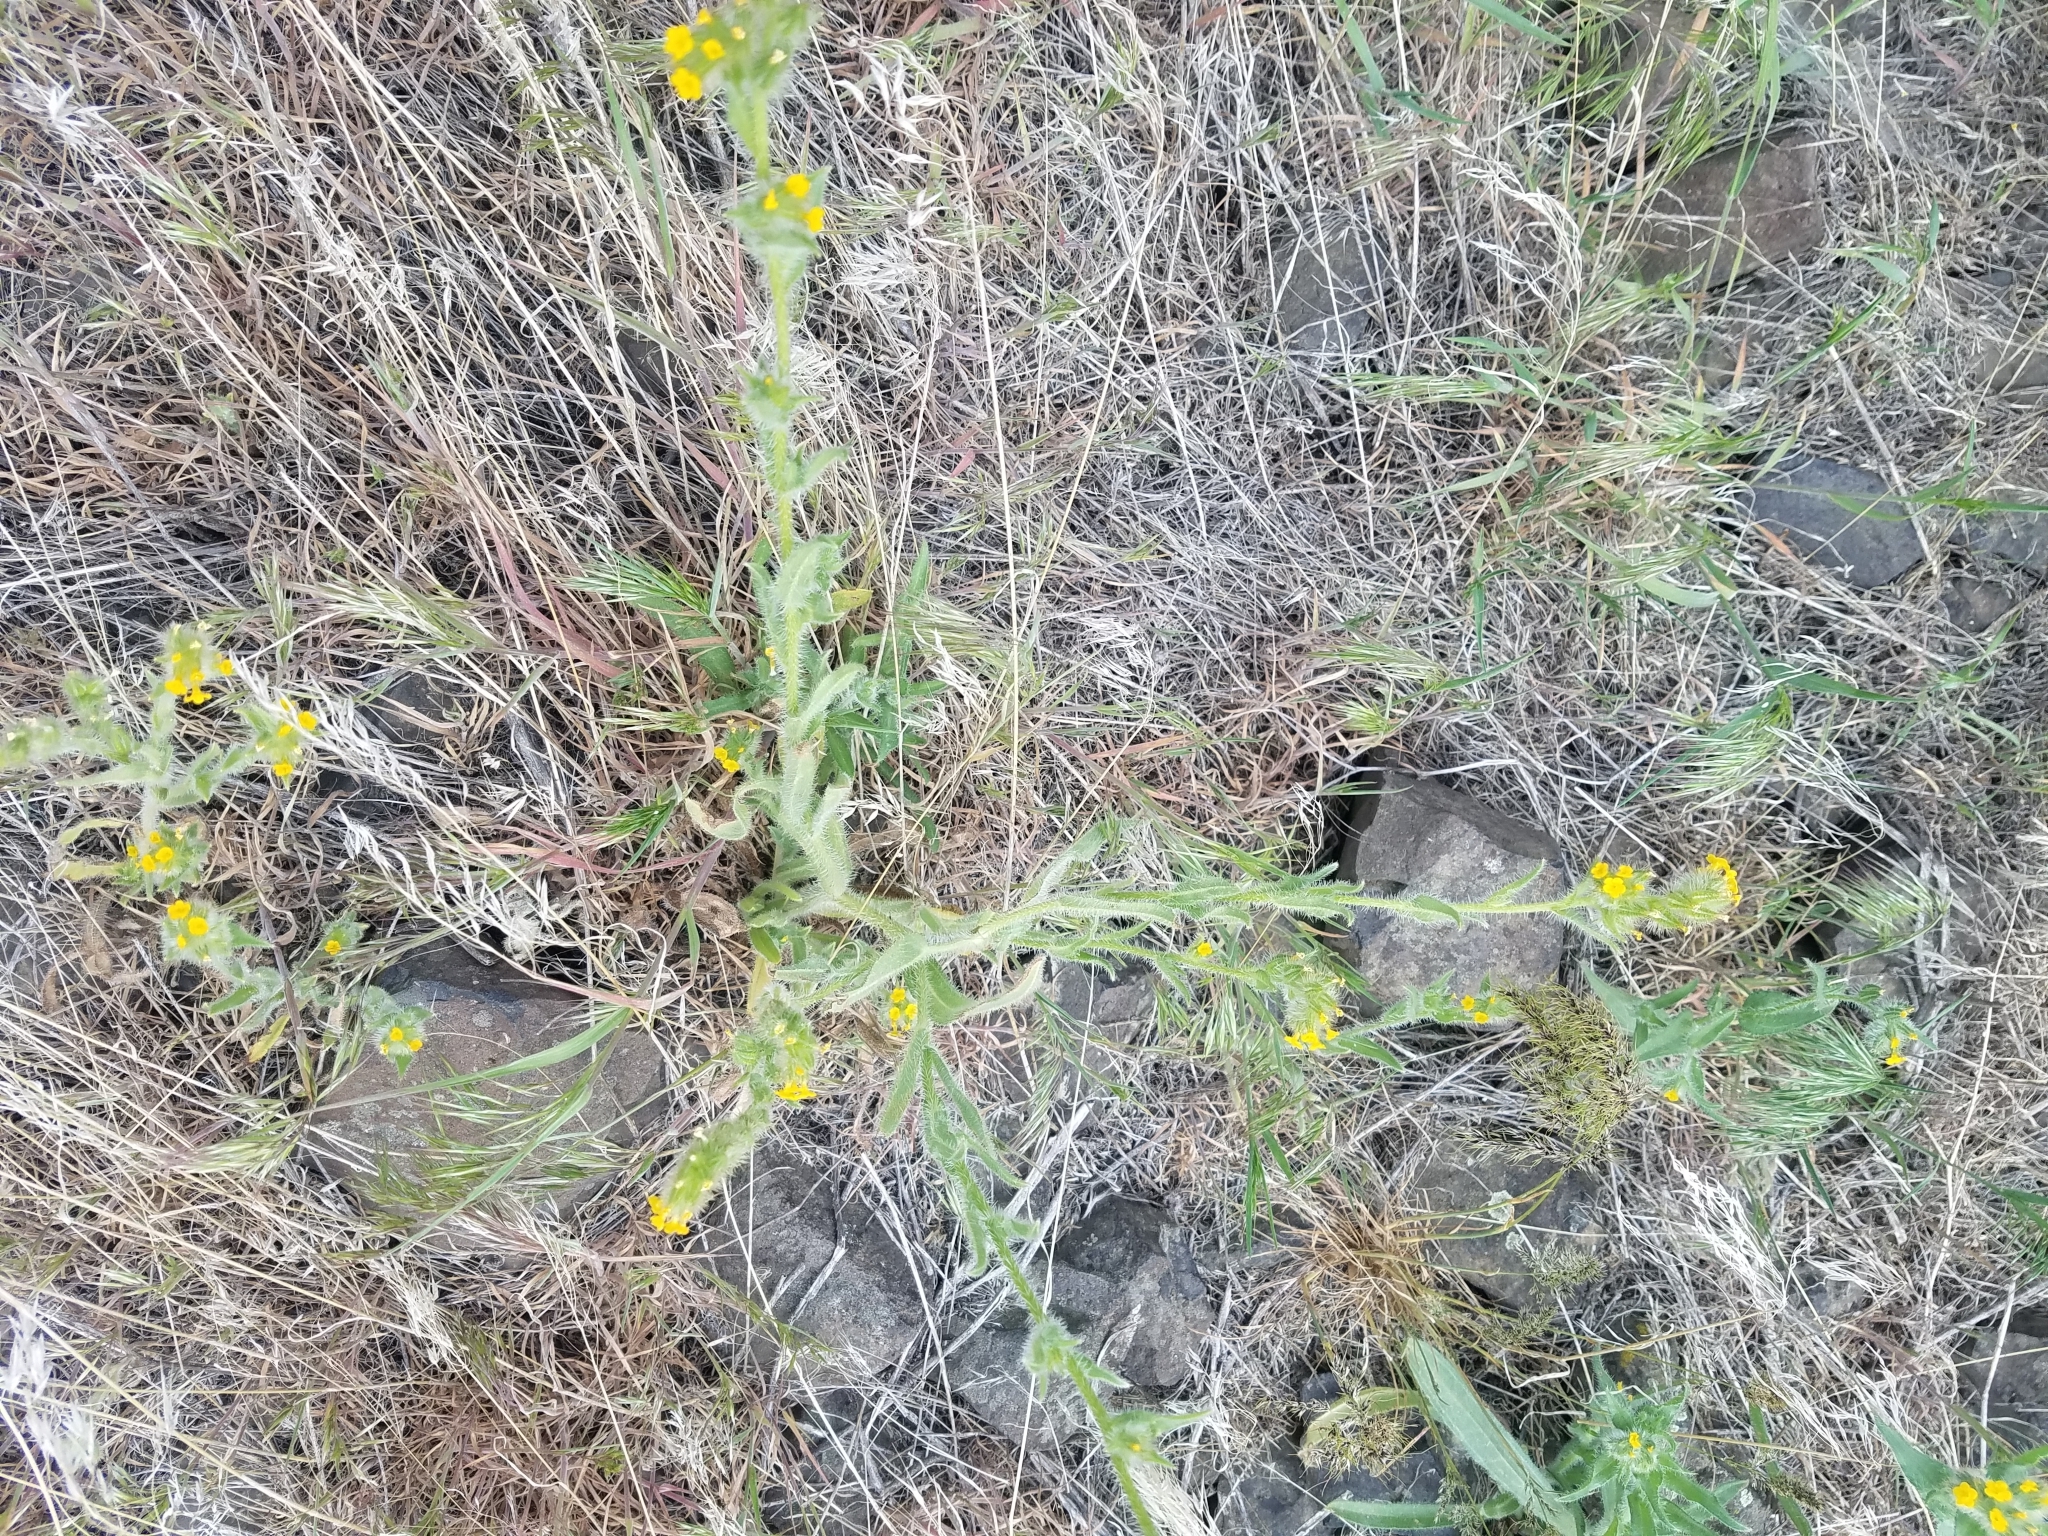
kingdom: Plantae
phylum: Tracheophyta
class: Magnoliopsida
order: Boraginales
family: Boraginaceae
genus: Amsinckia
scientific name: Amsinckia menziesii
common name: Menzies' fiddleneck
